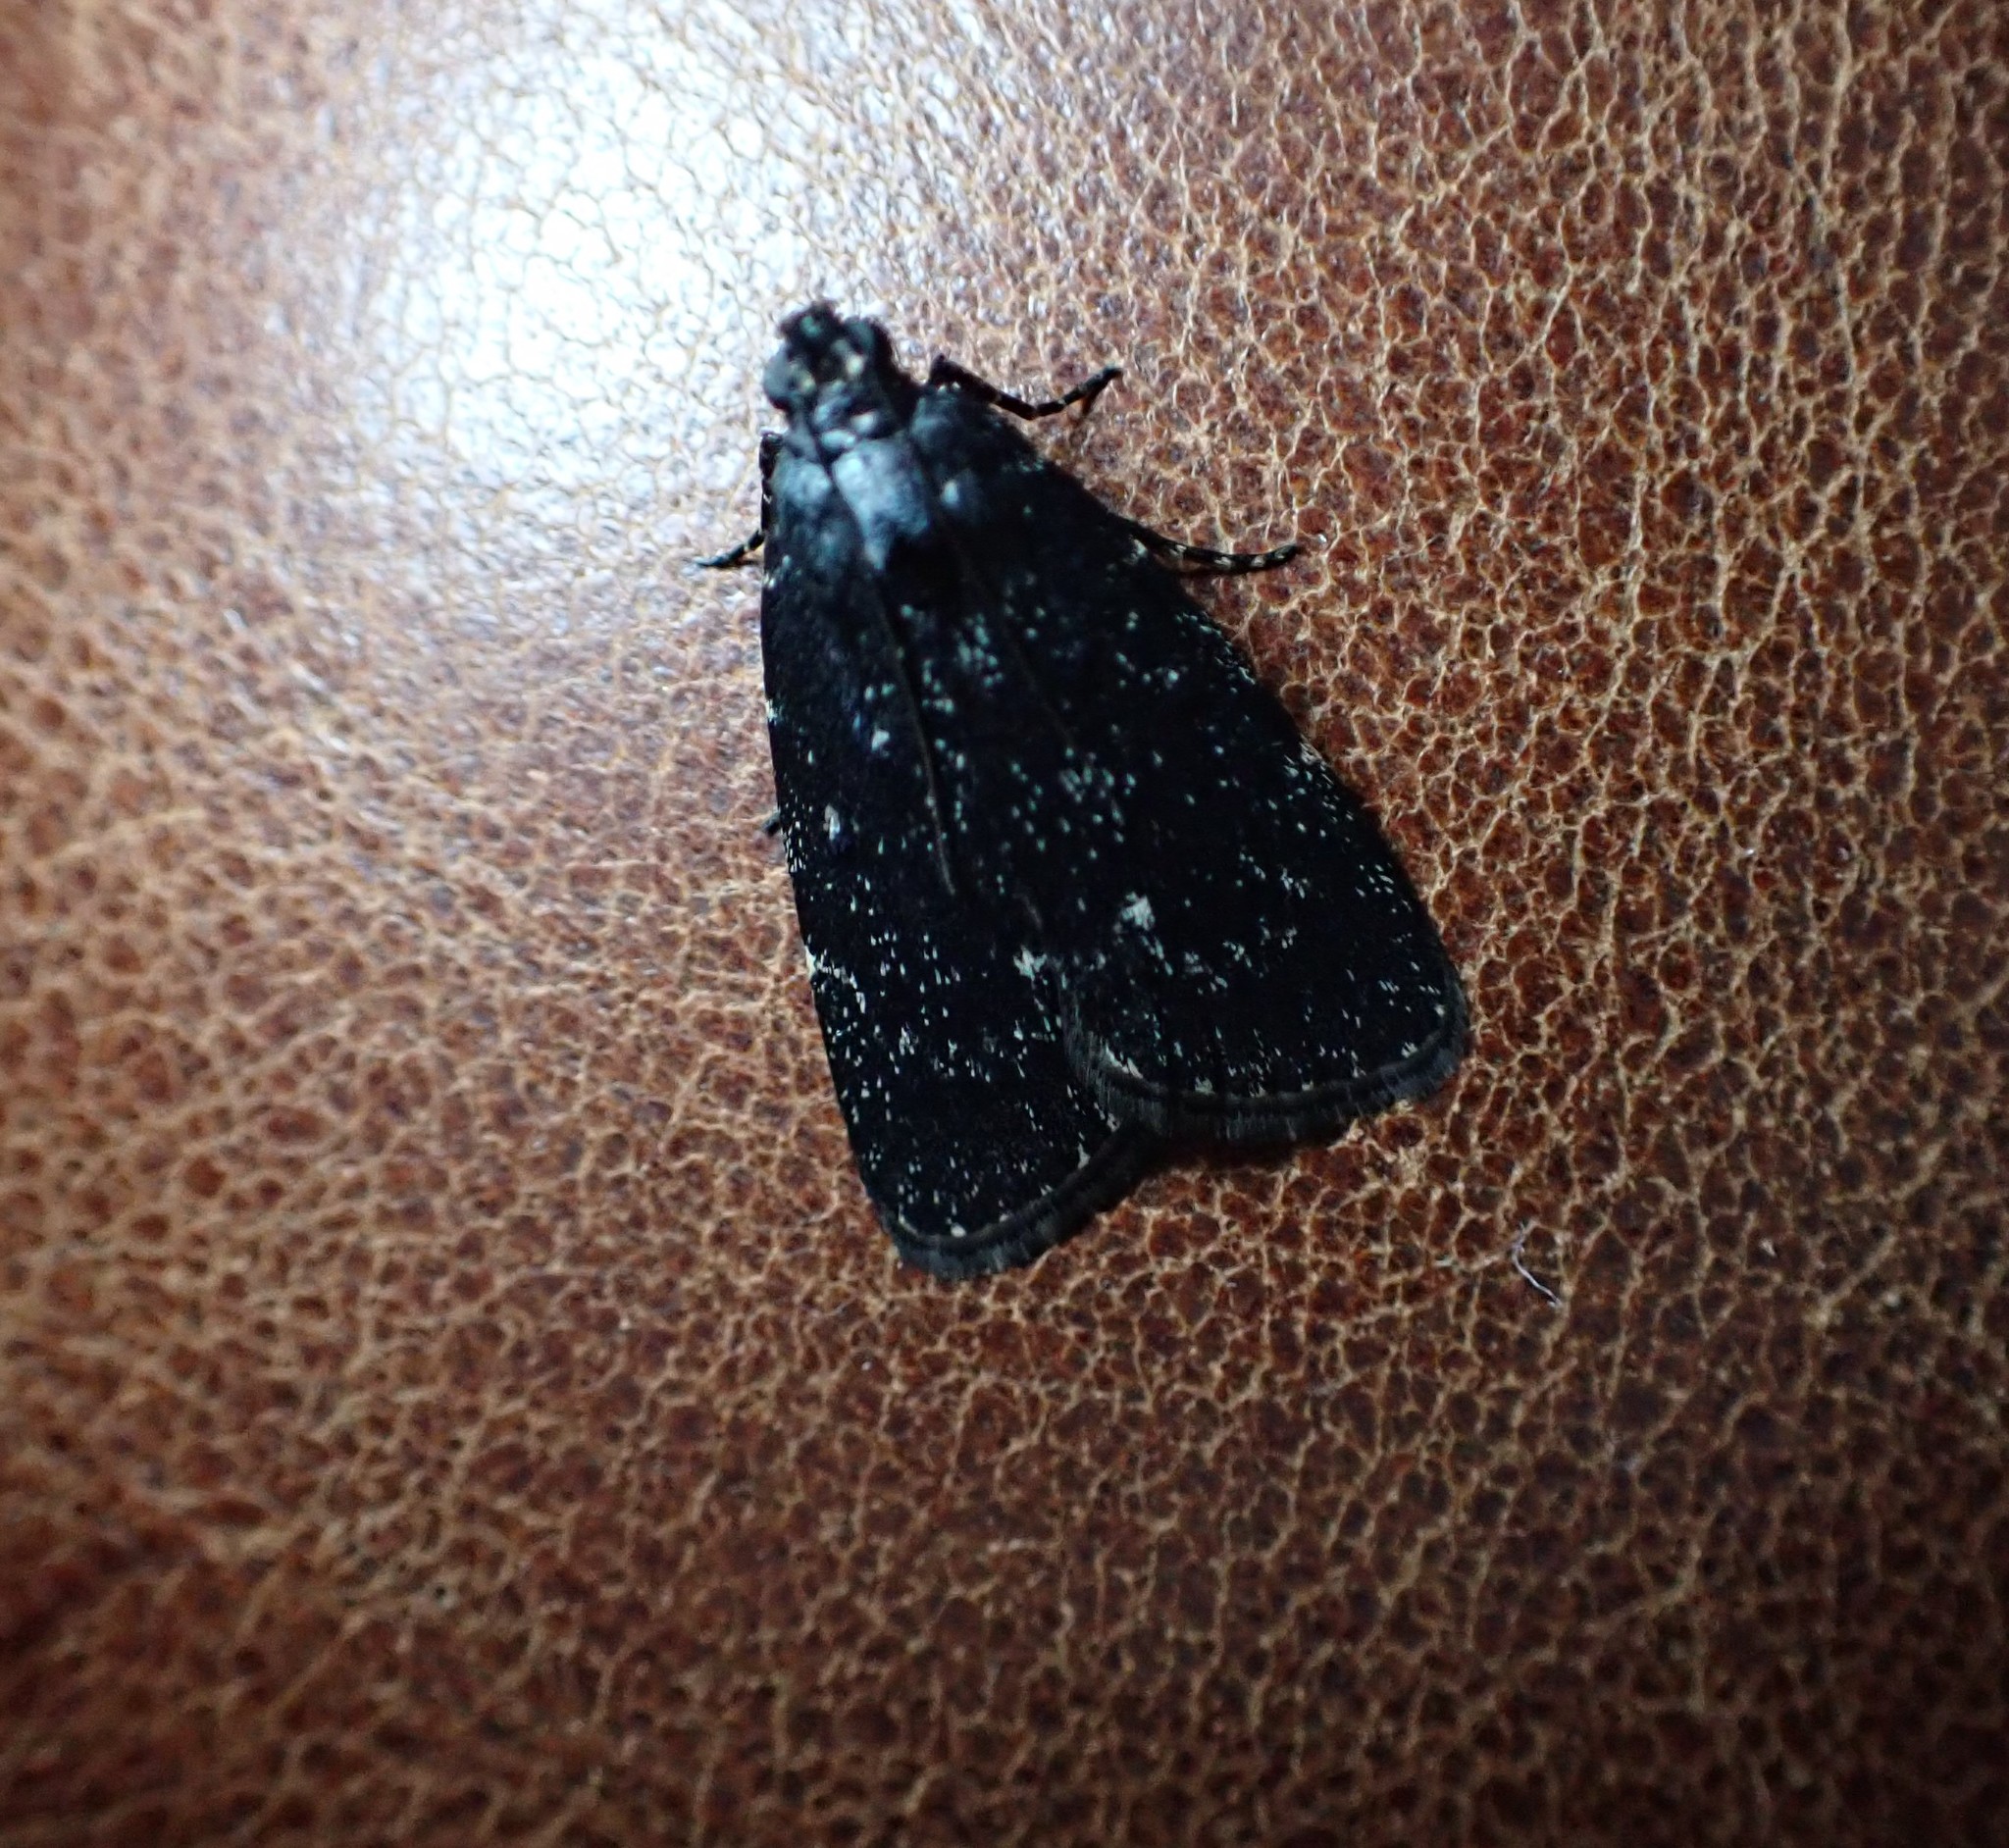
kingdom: Animalia
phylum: Arthropoda
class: Insecta
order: Lepidoptera
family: Pyralidae
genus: Stericta
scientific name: Stericta carbonalis
